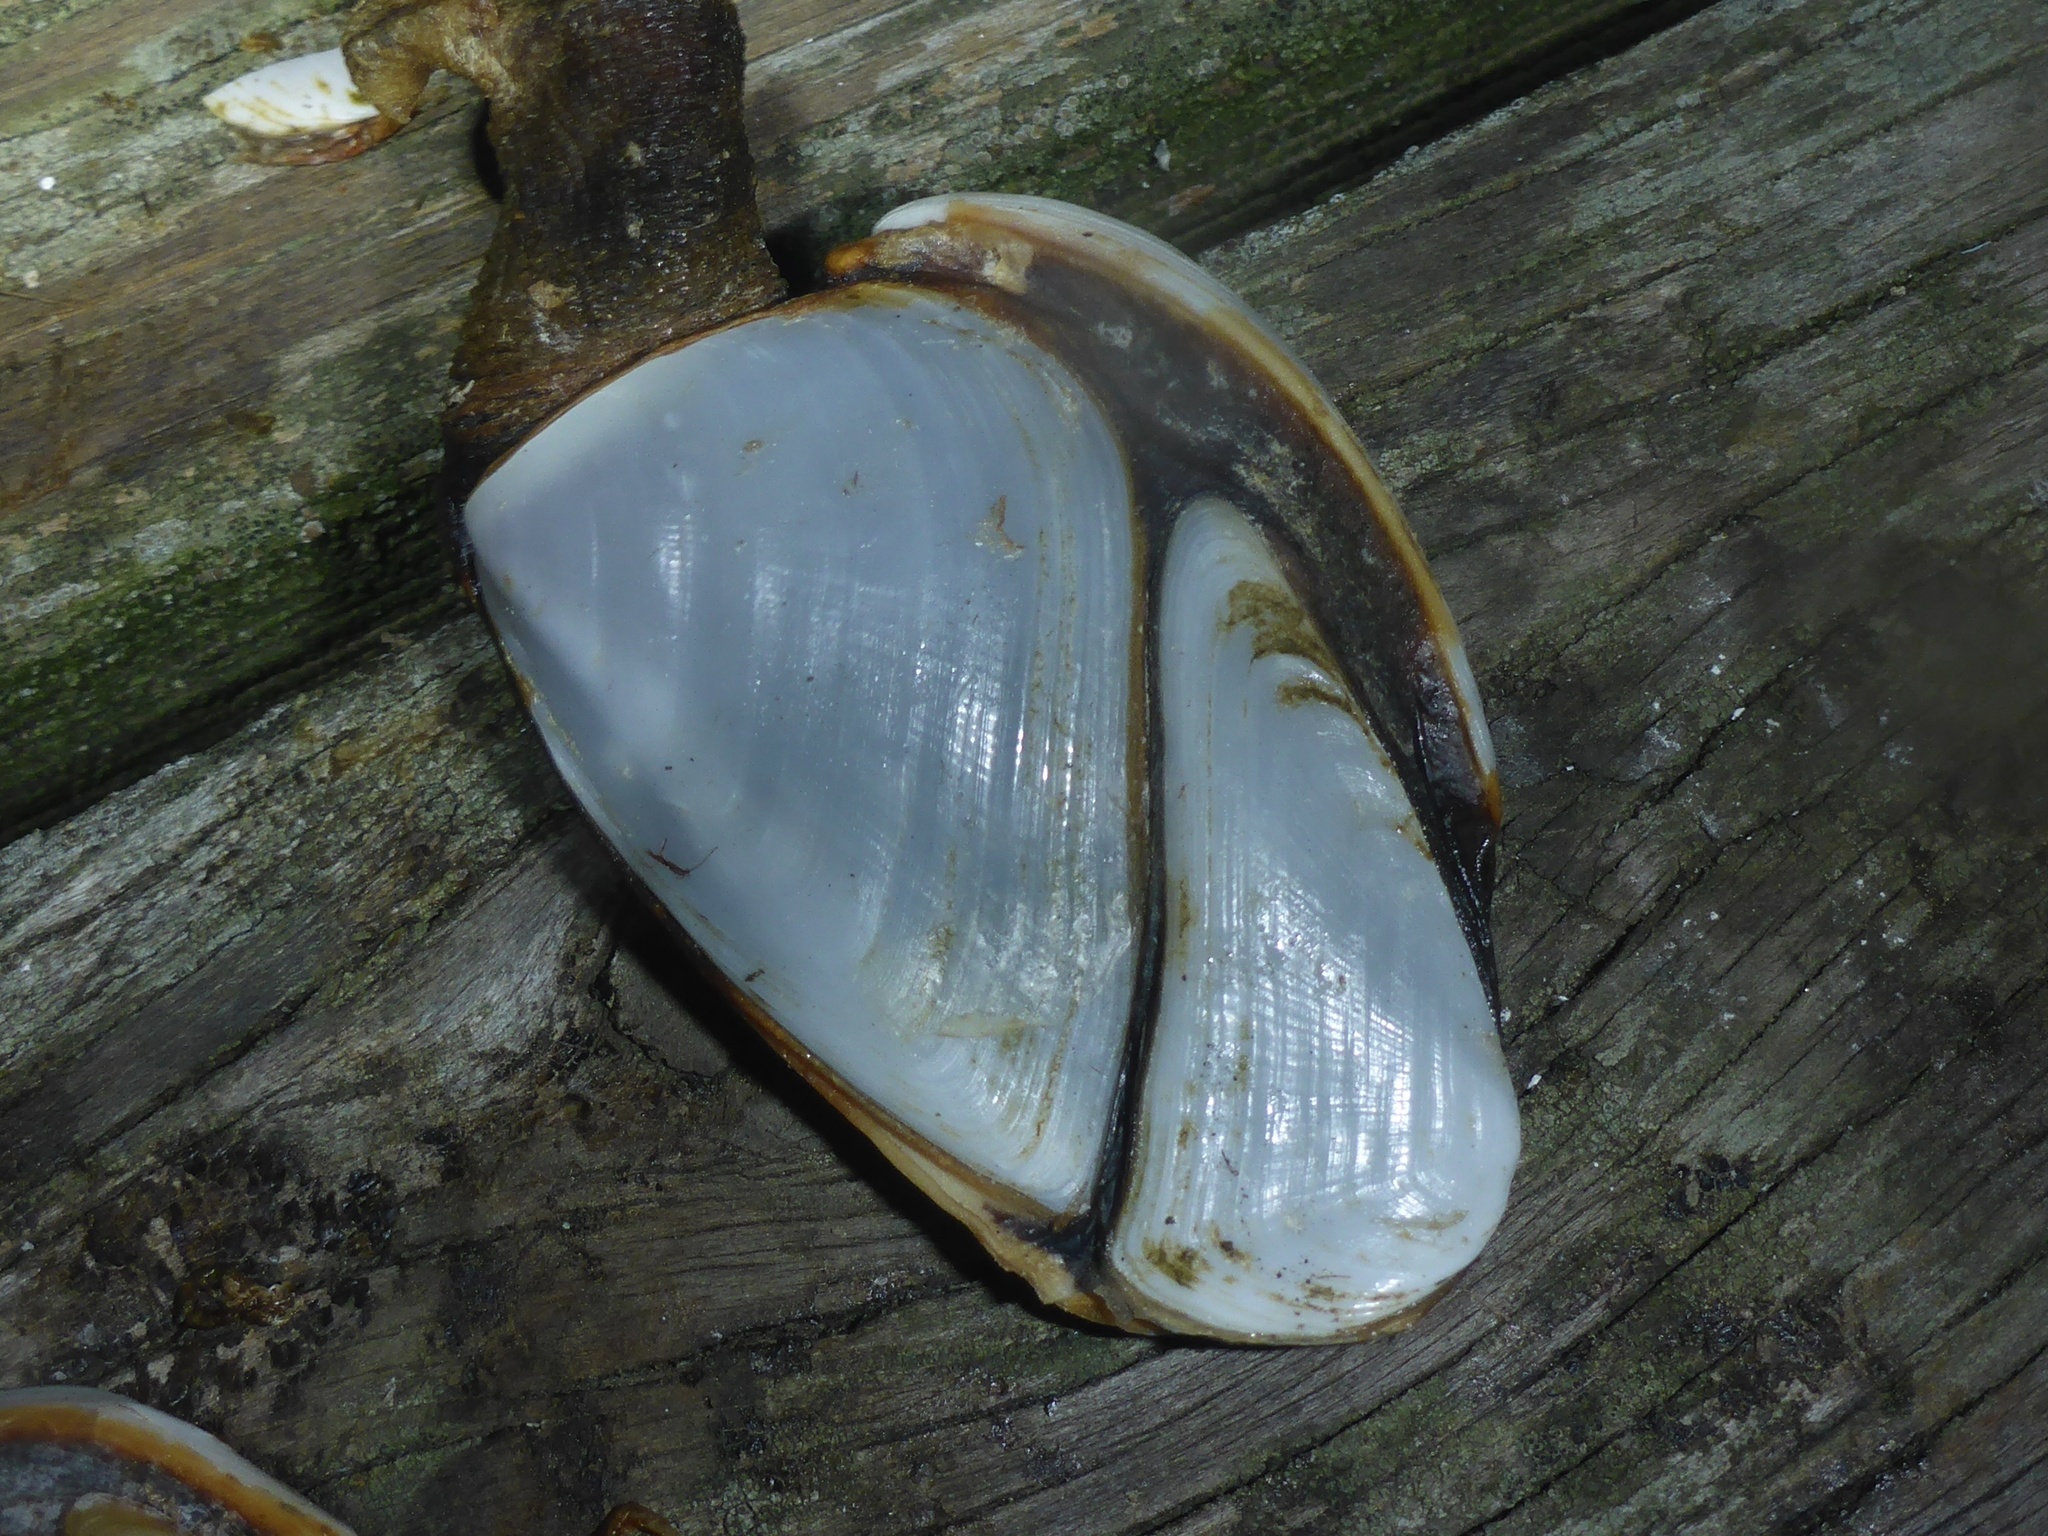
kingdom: Animalia
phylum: Arthropoda
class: Maxillopoda
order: Pedunculata
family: Lepadidae
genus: Lepas
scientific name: Lepas anatifera
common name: Common goose barnacle
